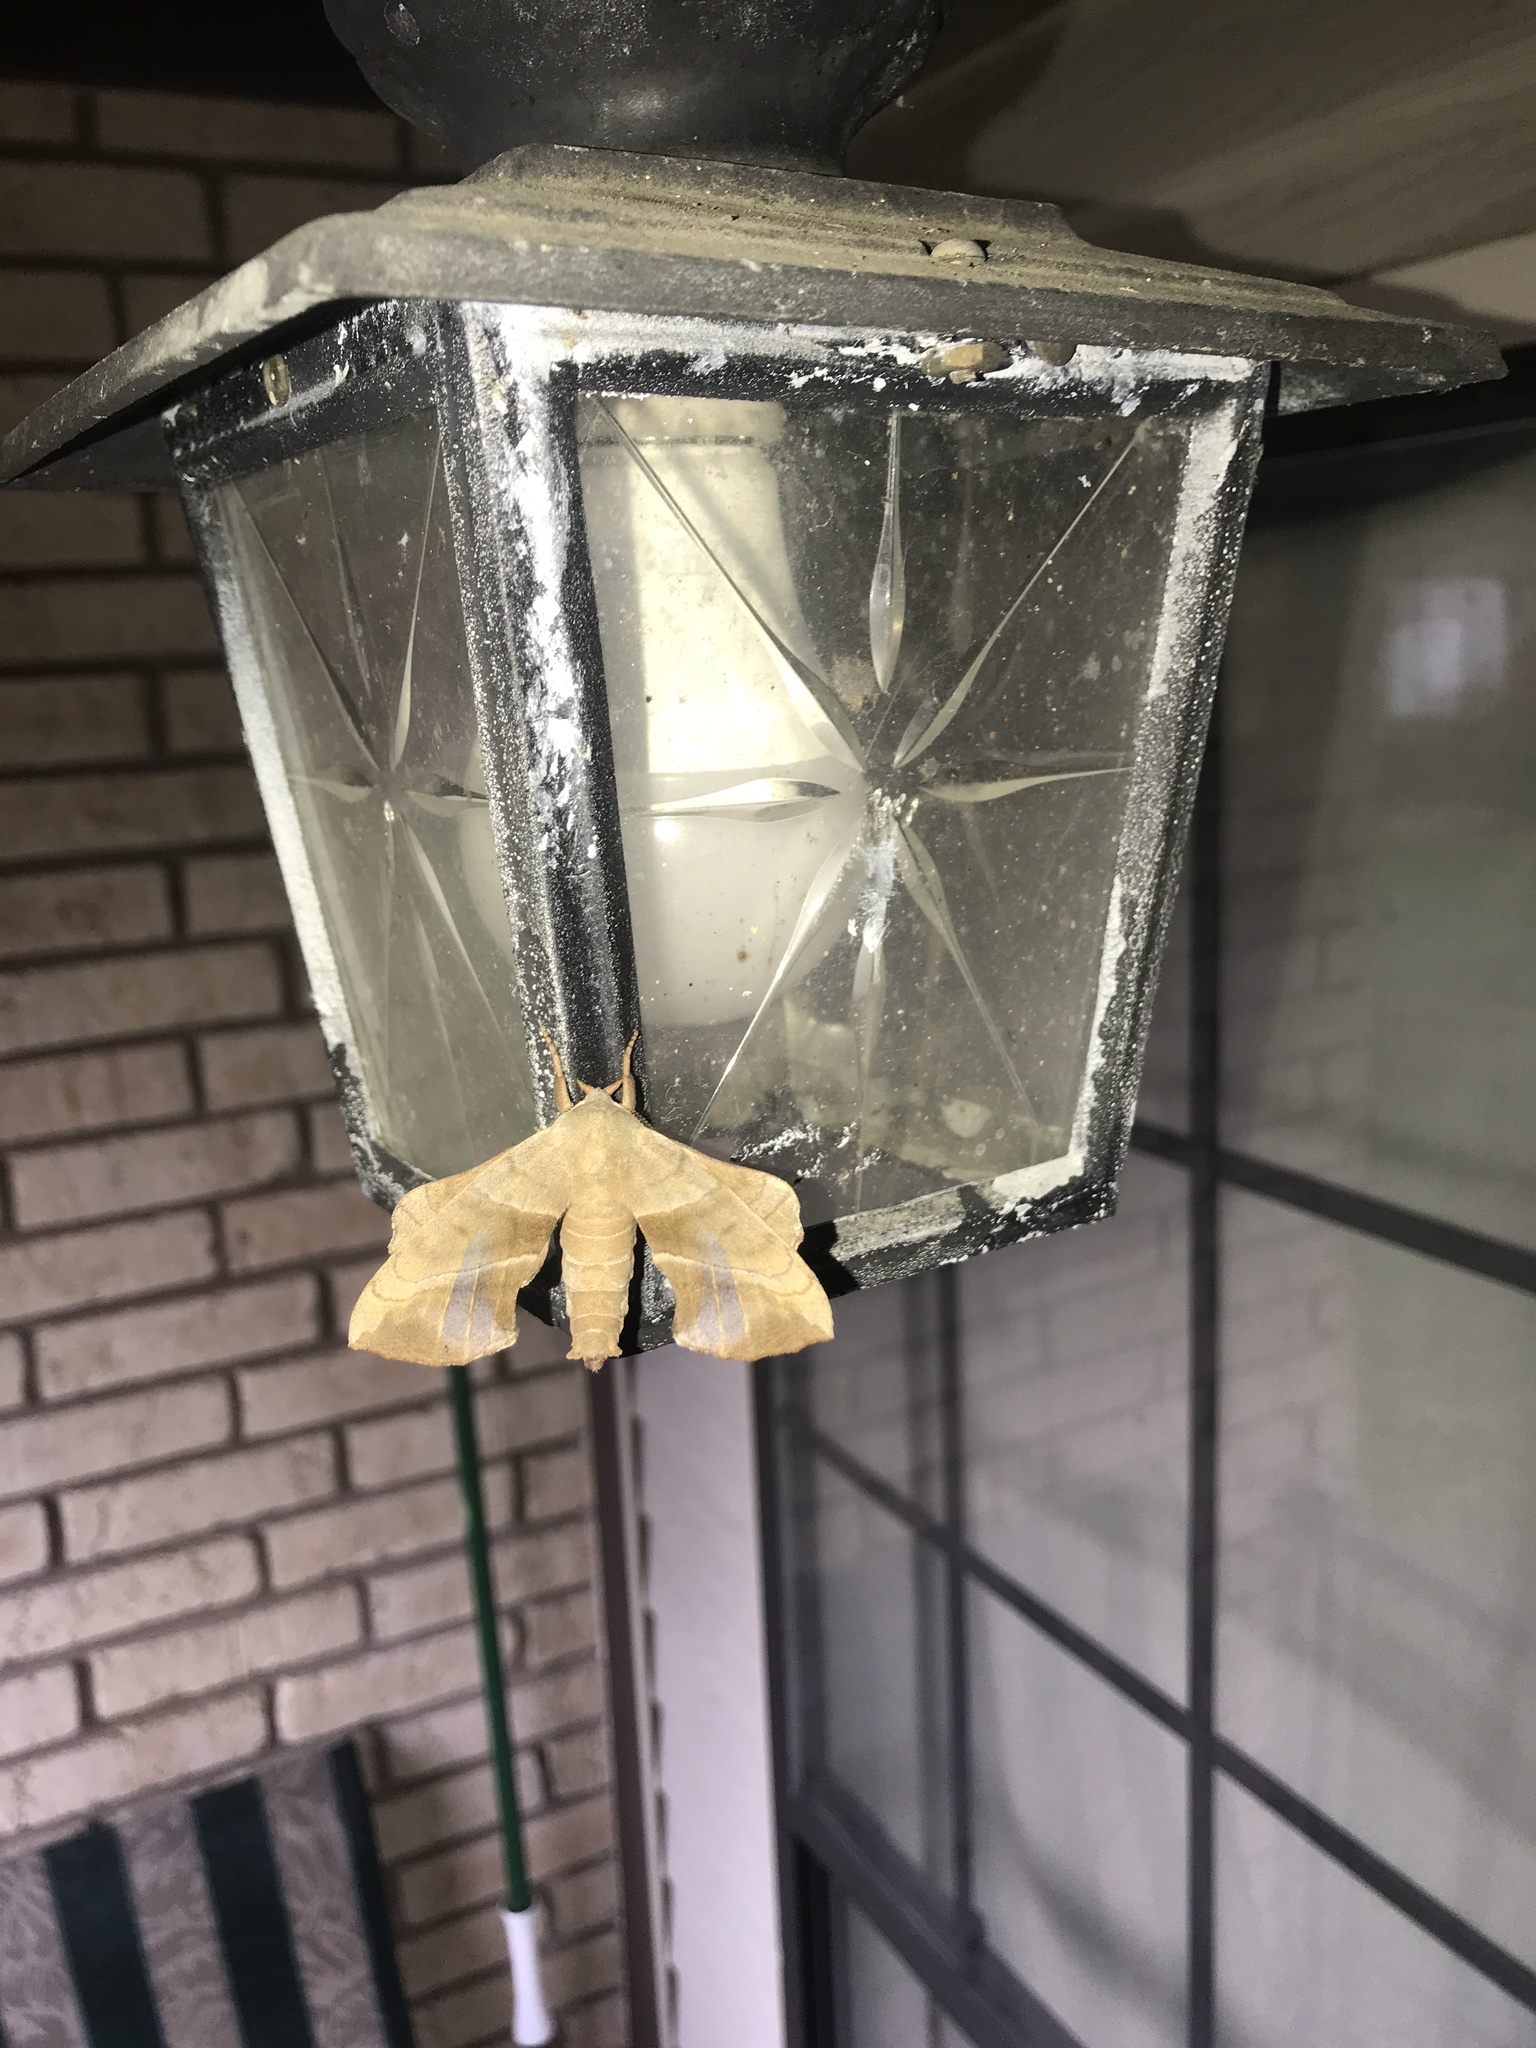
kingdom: Animalia
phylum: Arthropoda
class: Insecta
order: Lepidoptera
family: Sphingidae
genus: Amorpha
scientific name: Amorpha juglandis
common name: Walnut sphinx
